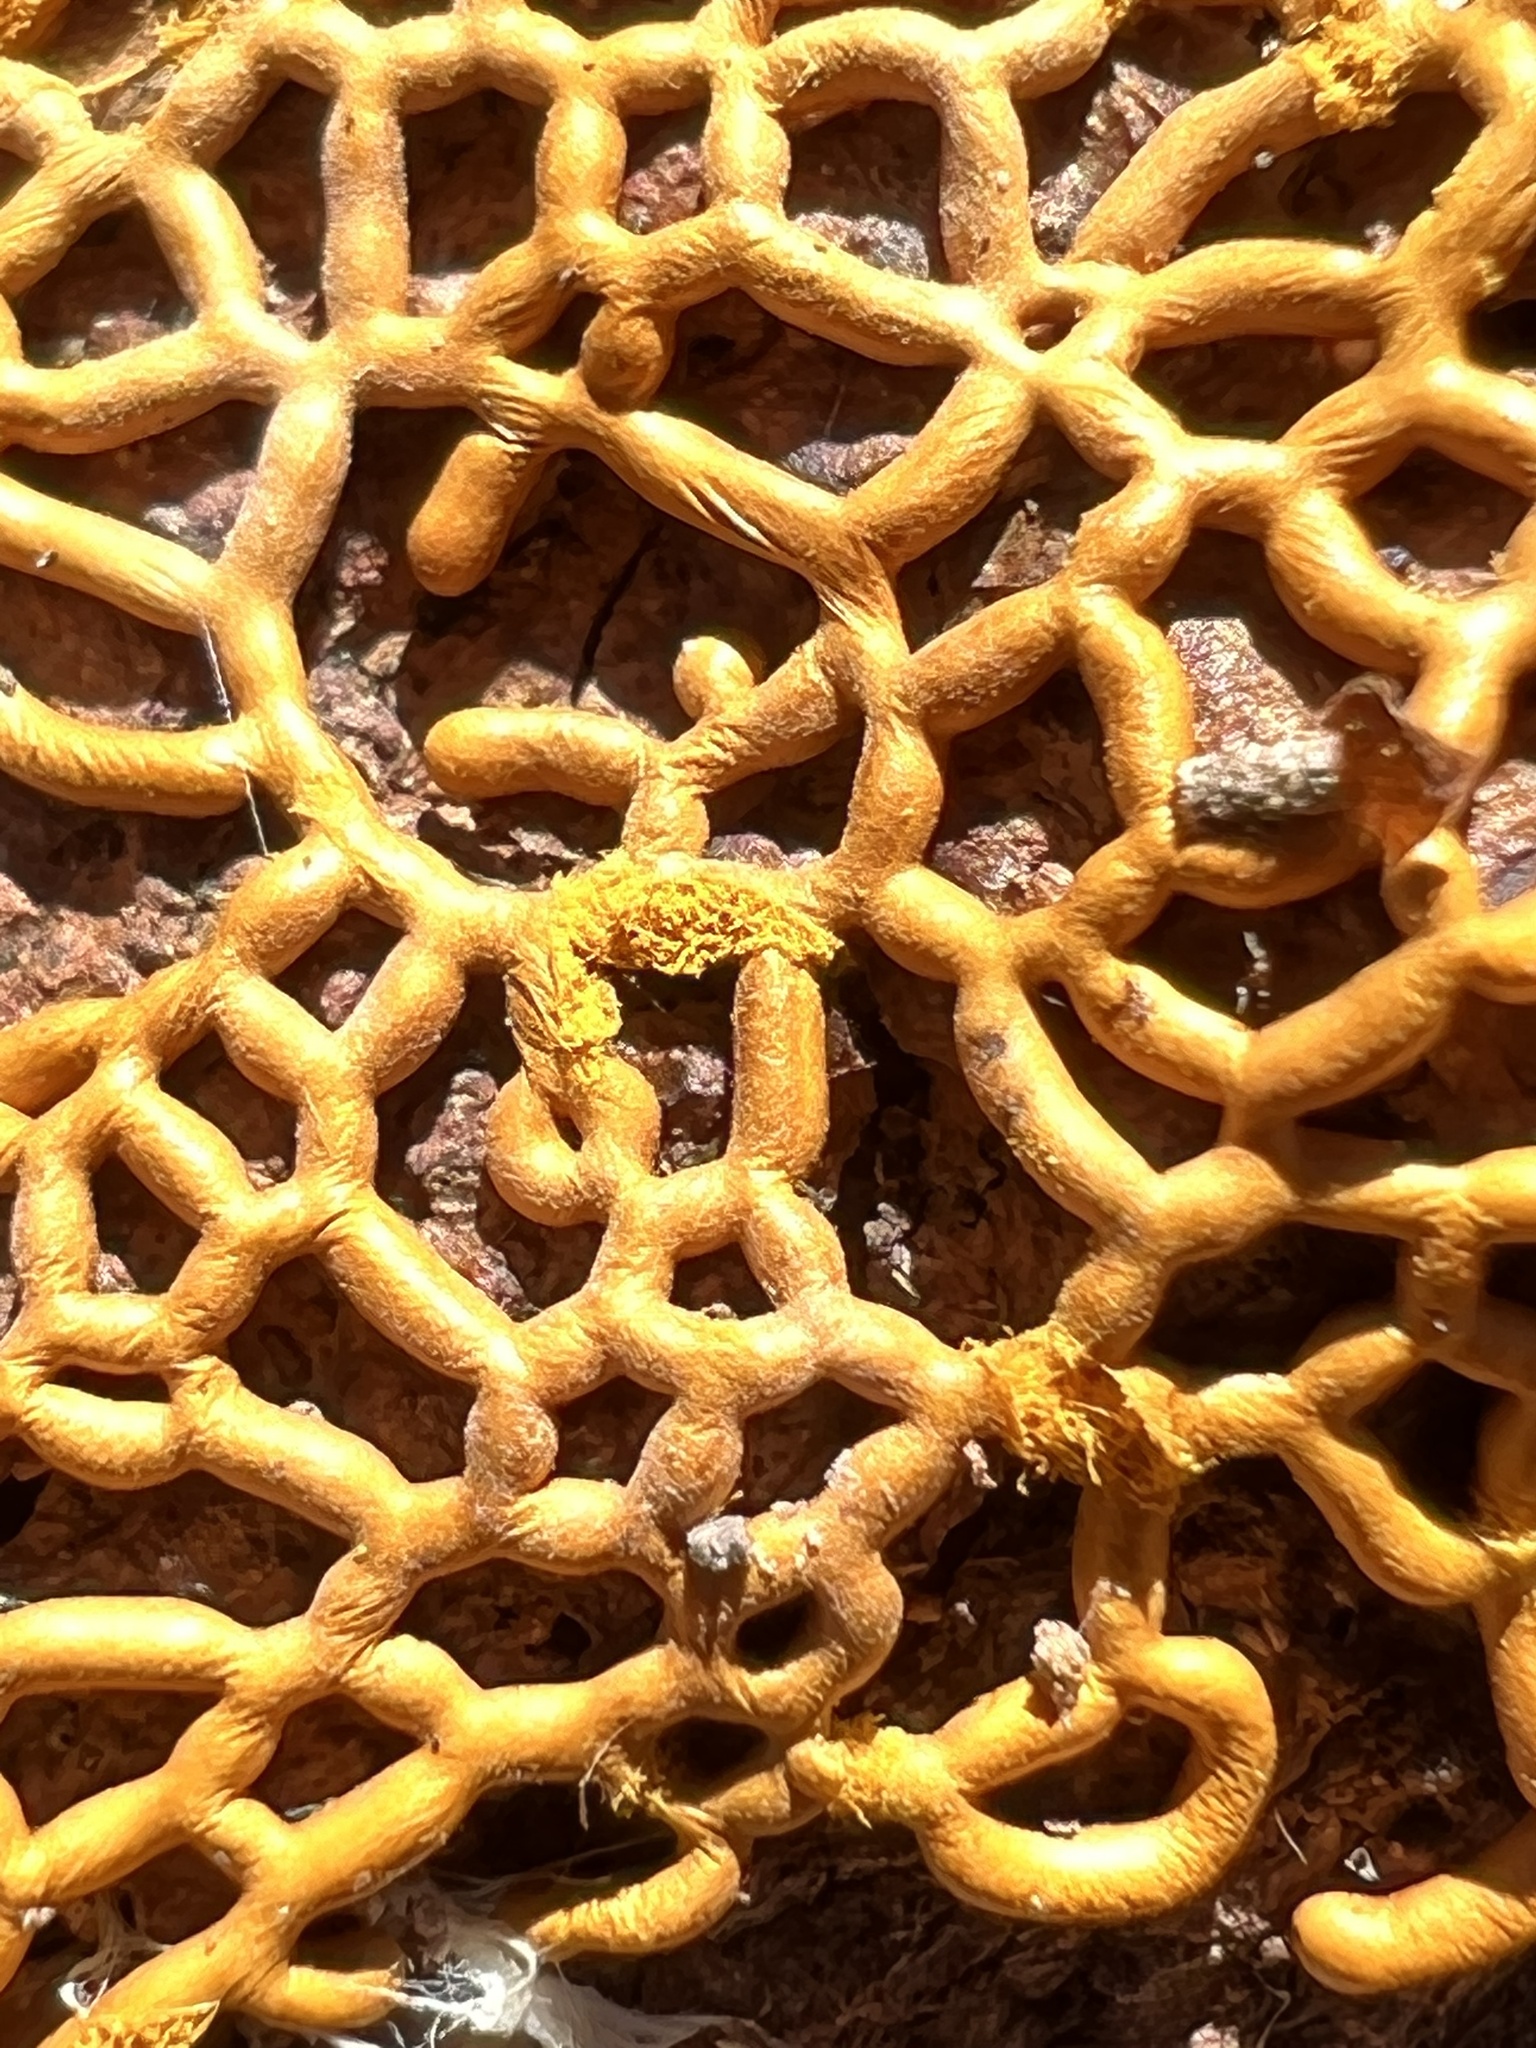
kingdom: Protozoa
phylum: Mycetozoa
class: Myxomycetes
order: Trichiales
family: Arcyriaceae
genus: Hemitrichia
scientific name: Hemitrichia serpula
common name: Pretzel slime mold
